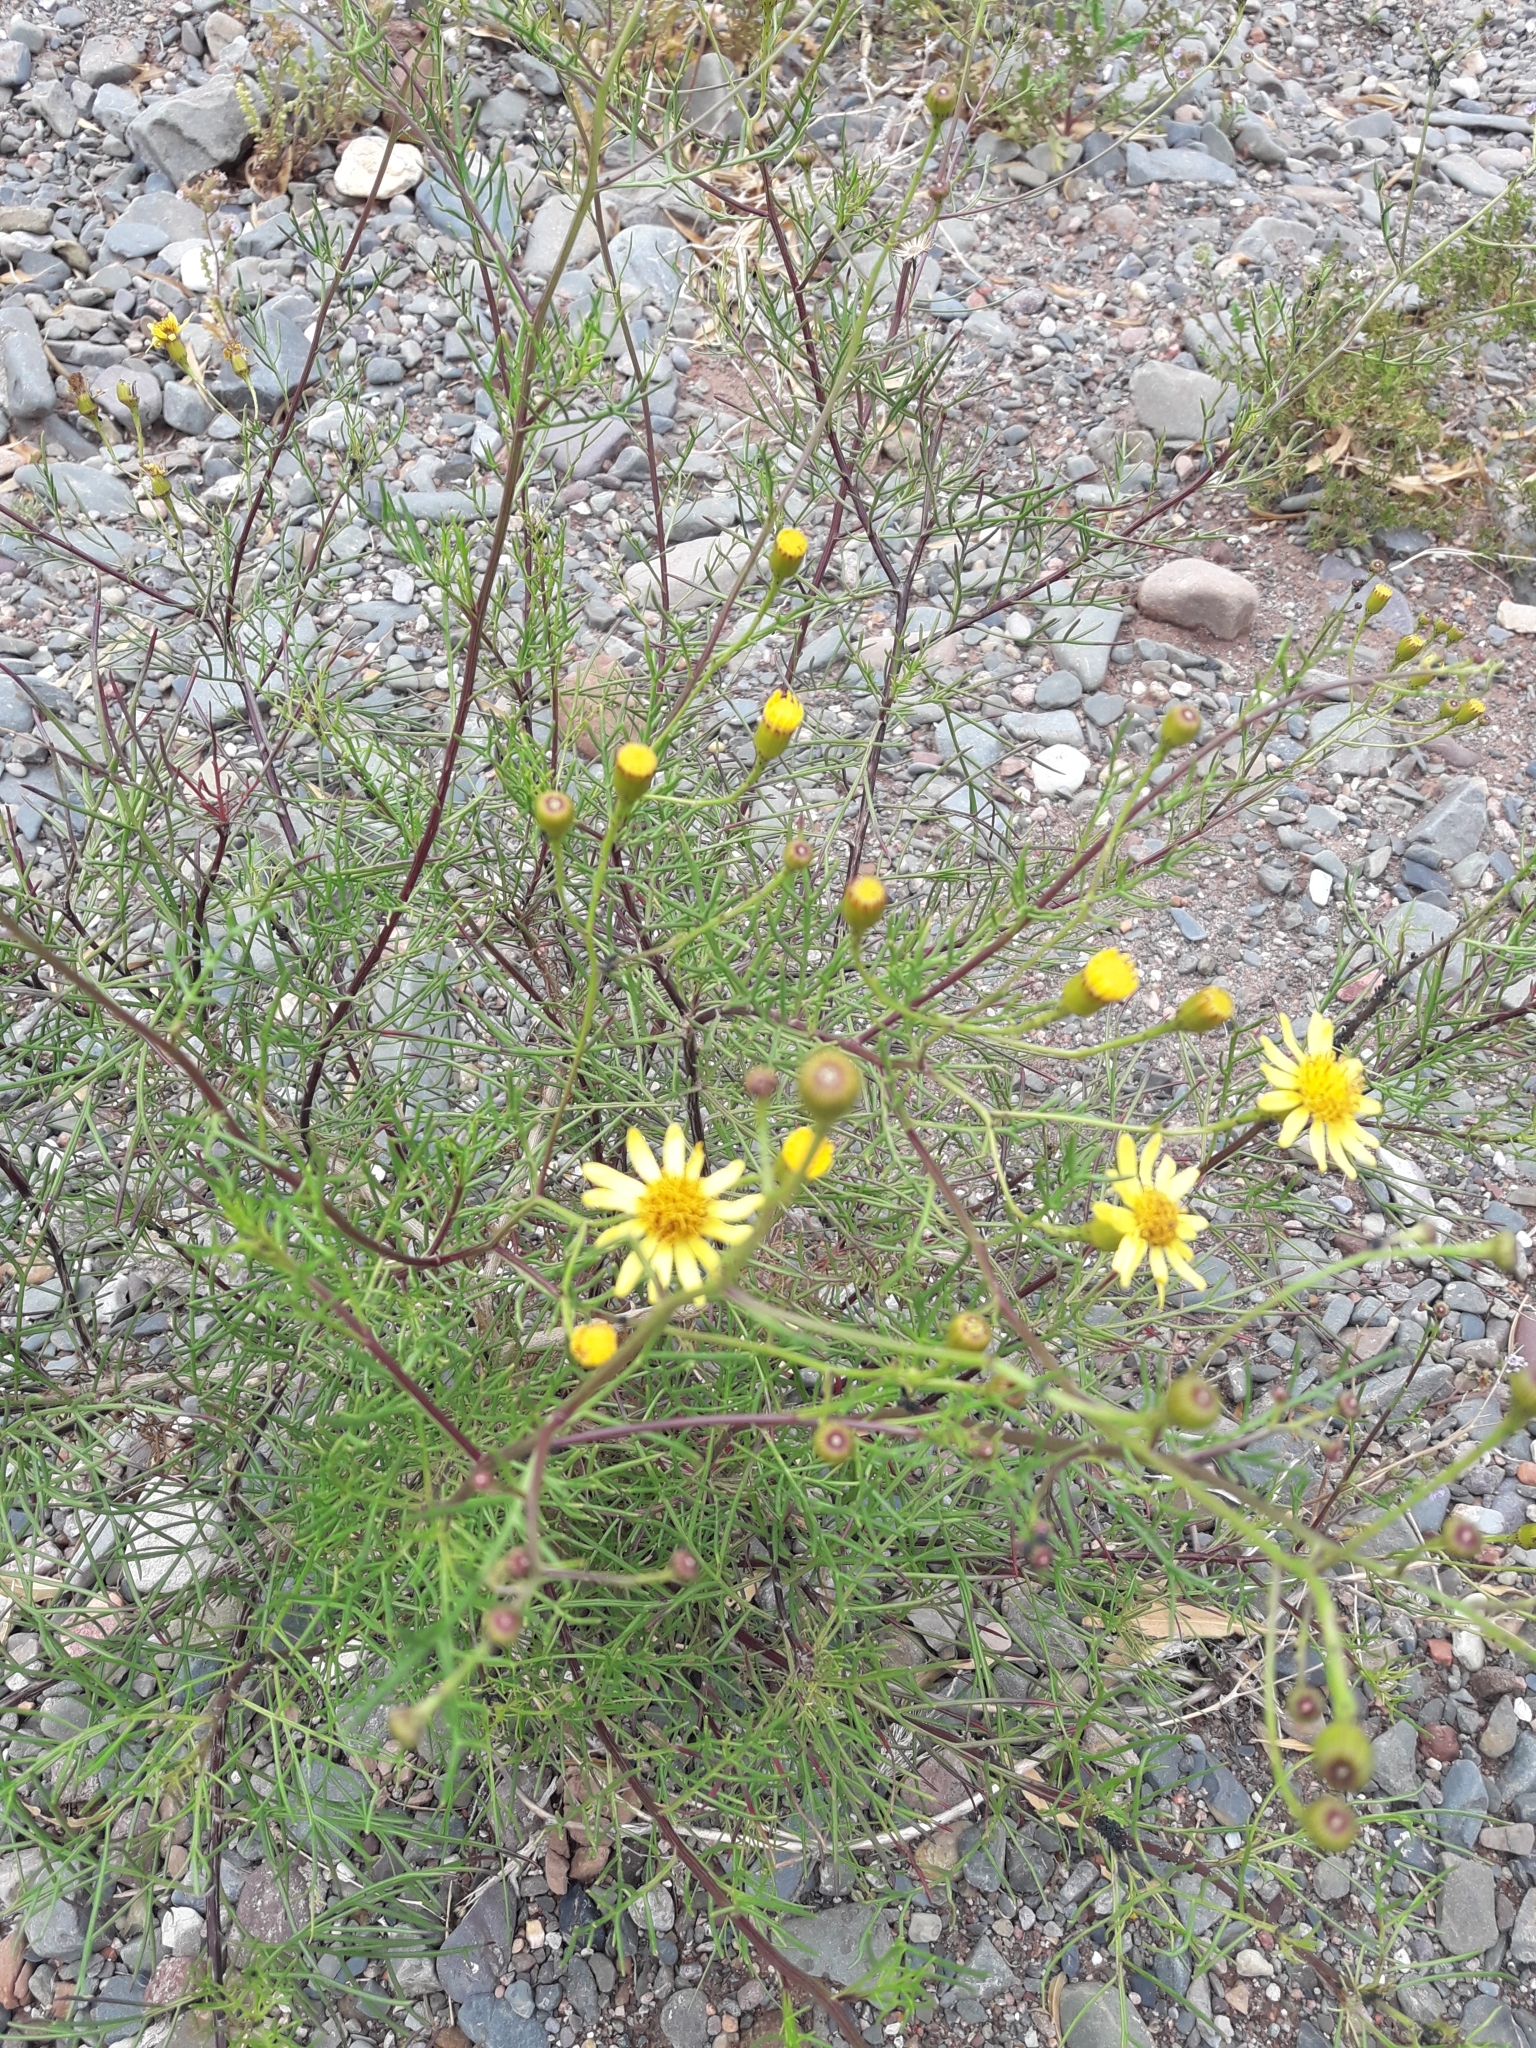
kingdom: Plantae
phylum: Tracheophyta
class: Magnoliopsida
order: Asterales
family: Asteraceae
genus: Senecio
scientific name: Senecio subulatus
